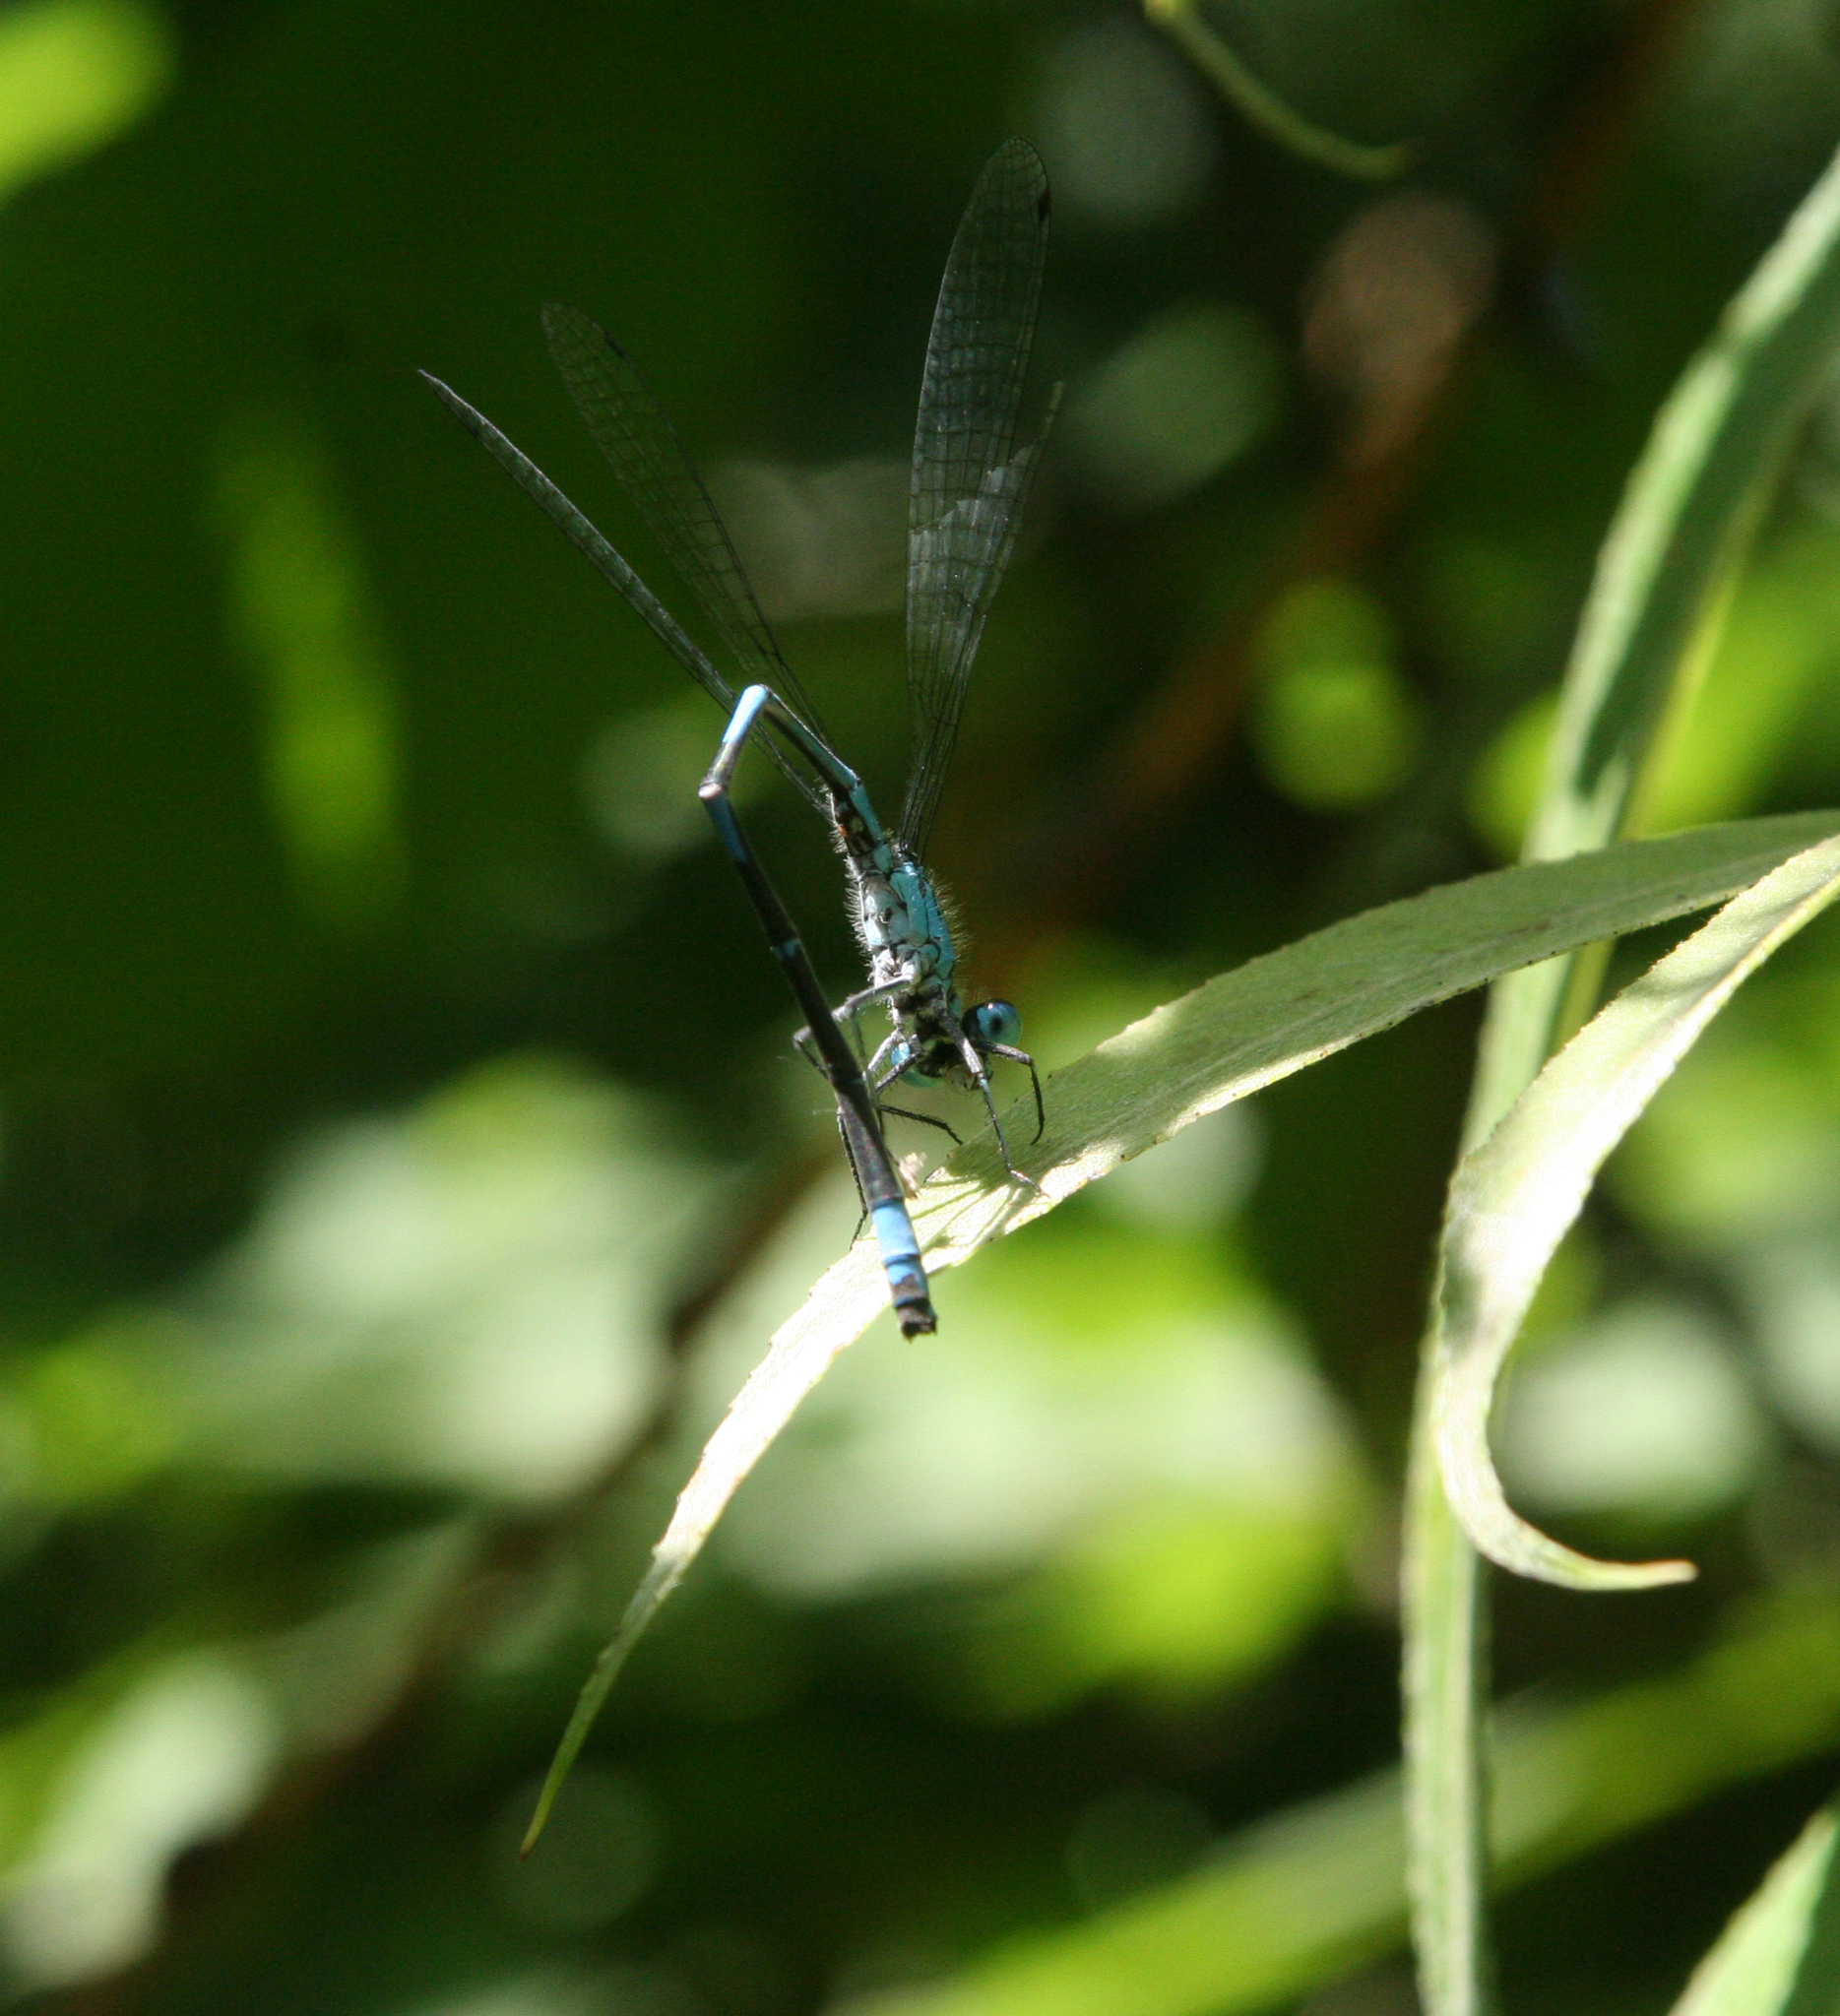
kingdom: Animalia
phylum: Arthropoda
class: Insecta
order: Odonata
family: Coenagrionidae
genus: Coenagrion
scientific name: Coenagrion ponticum
